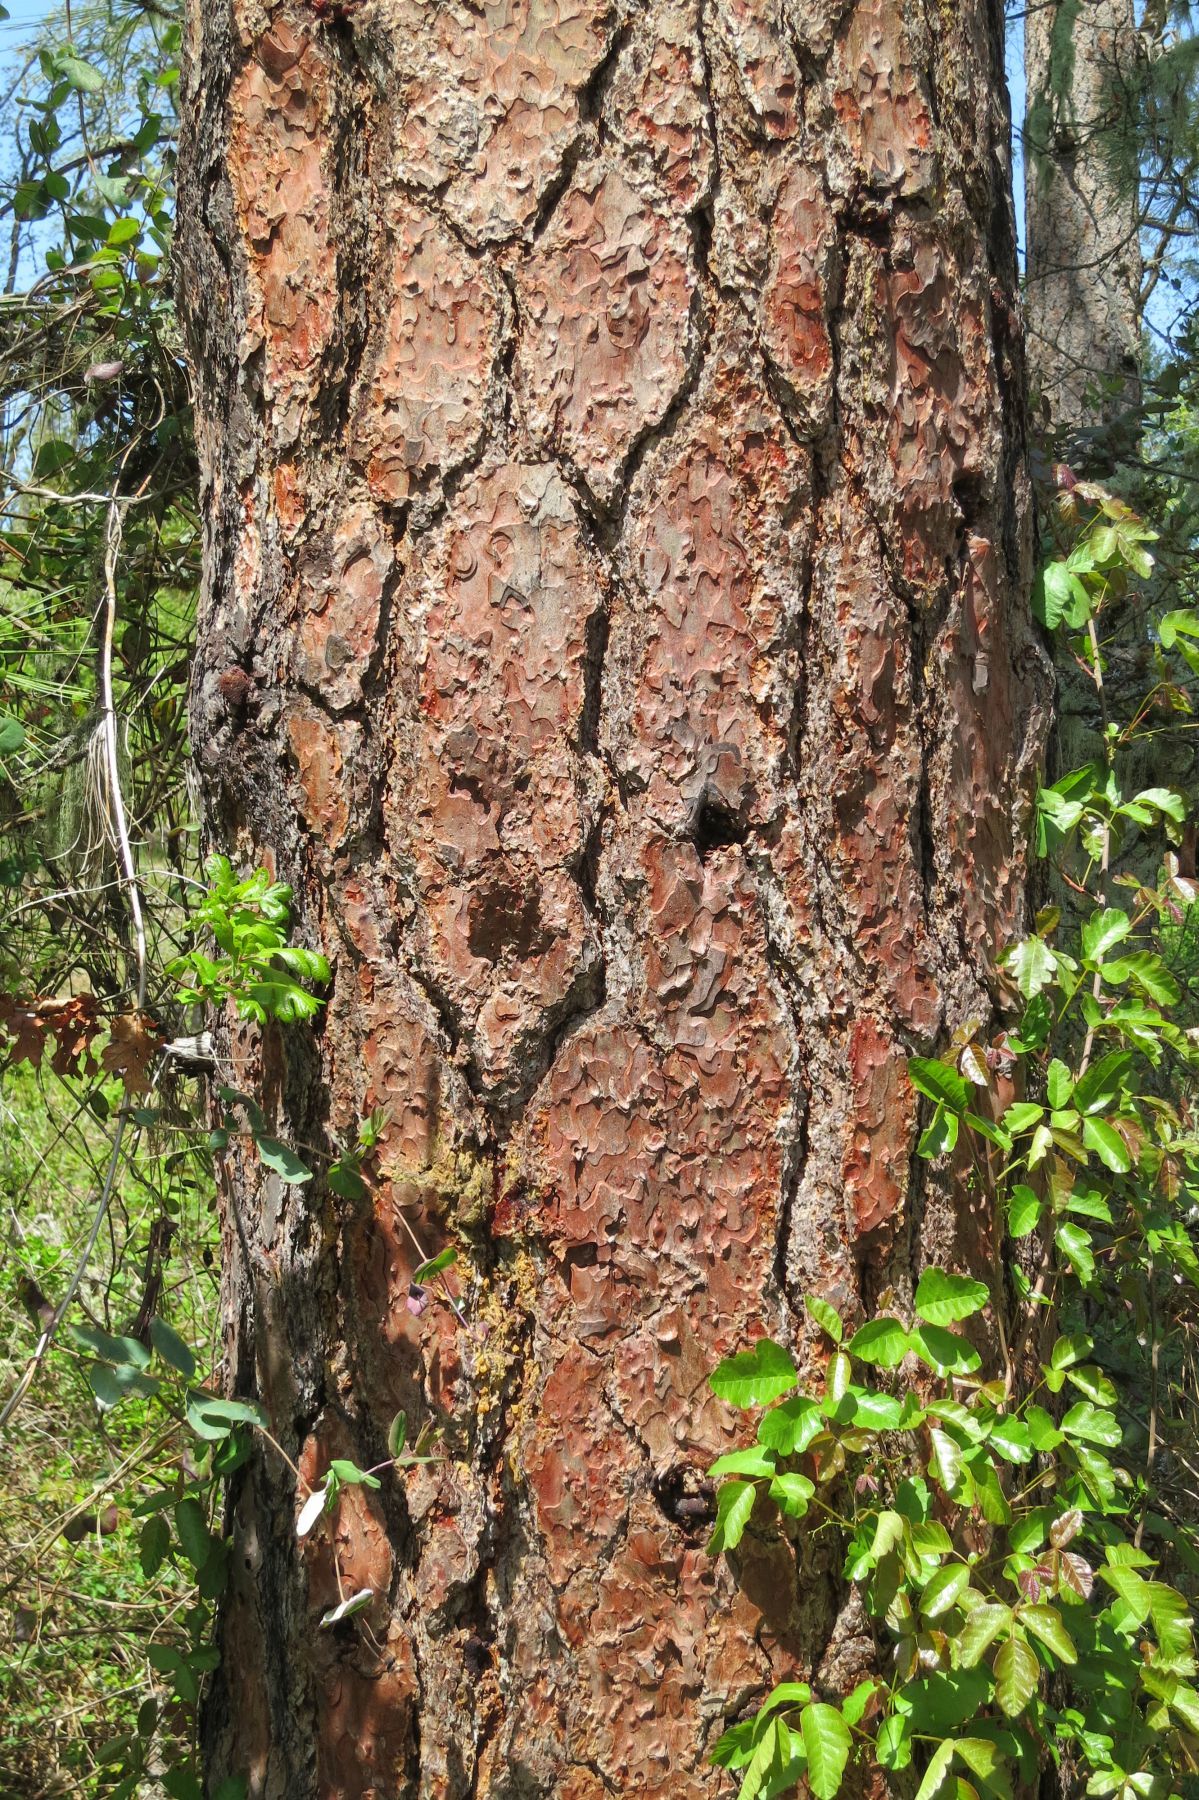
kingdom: Plantae
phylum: Tracheophyta
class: Pinopsida
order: Pinales
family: Pinaceae
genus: Pinus
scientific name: Pinus ponderosa
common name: Western yellow-pine
